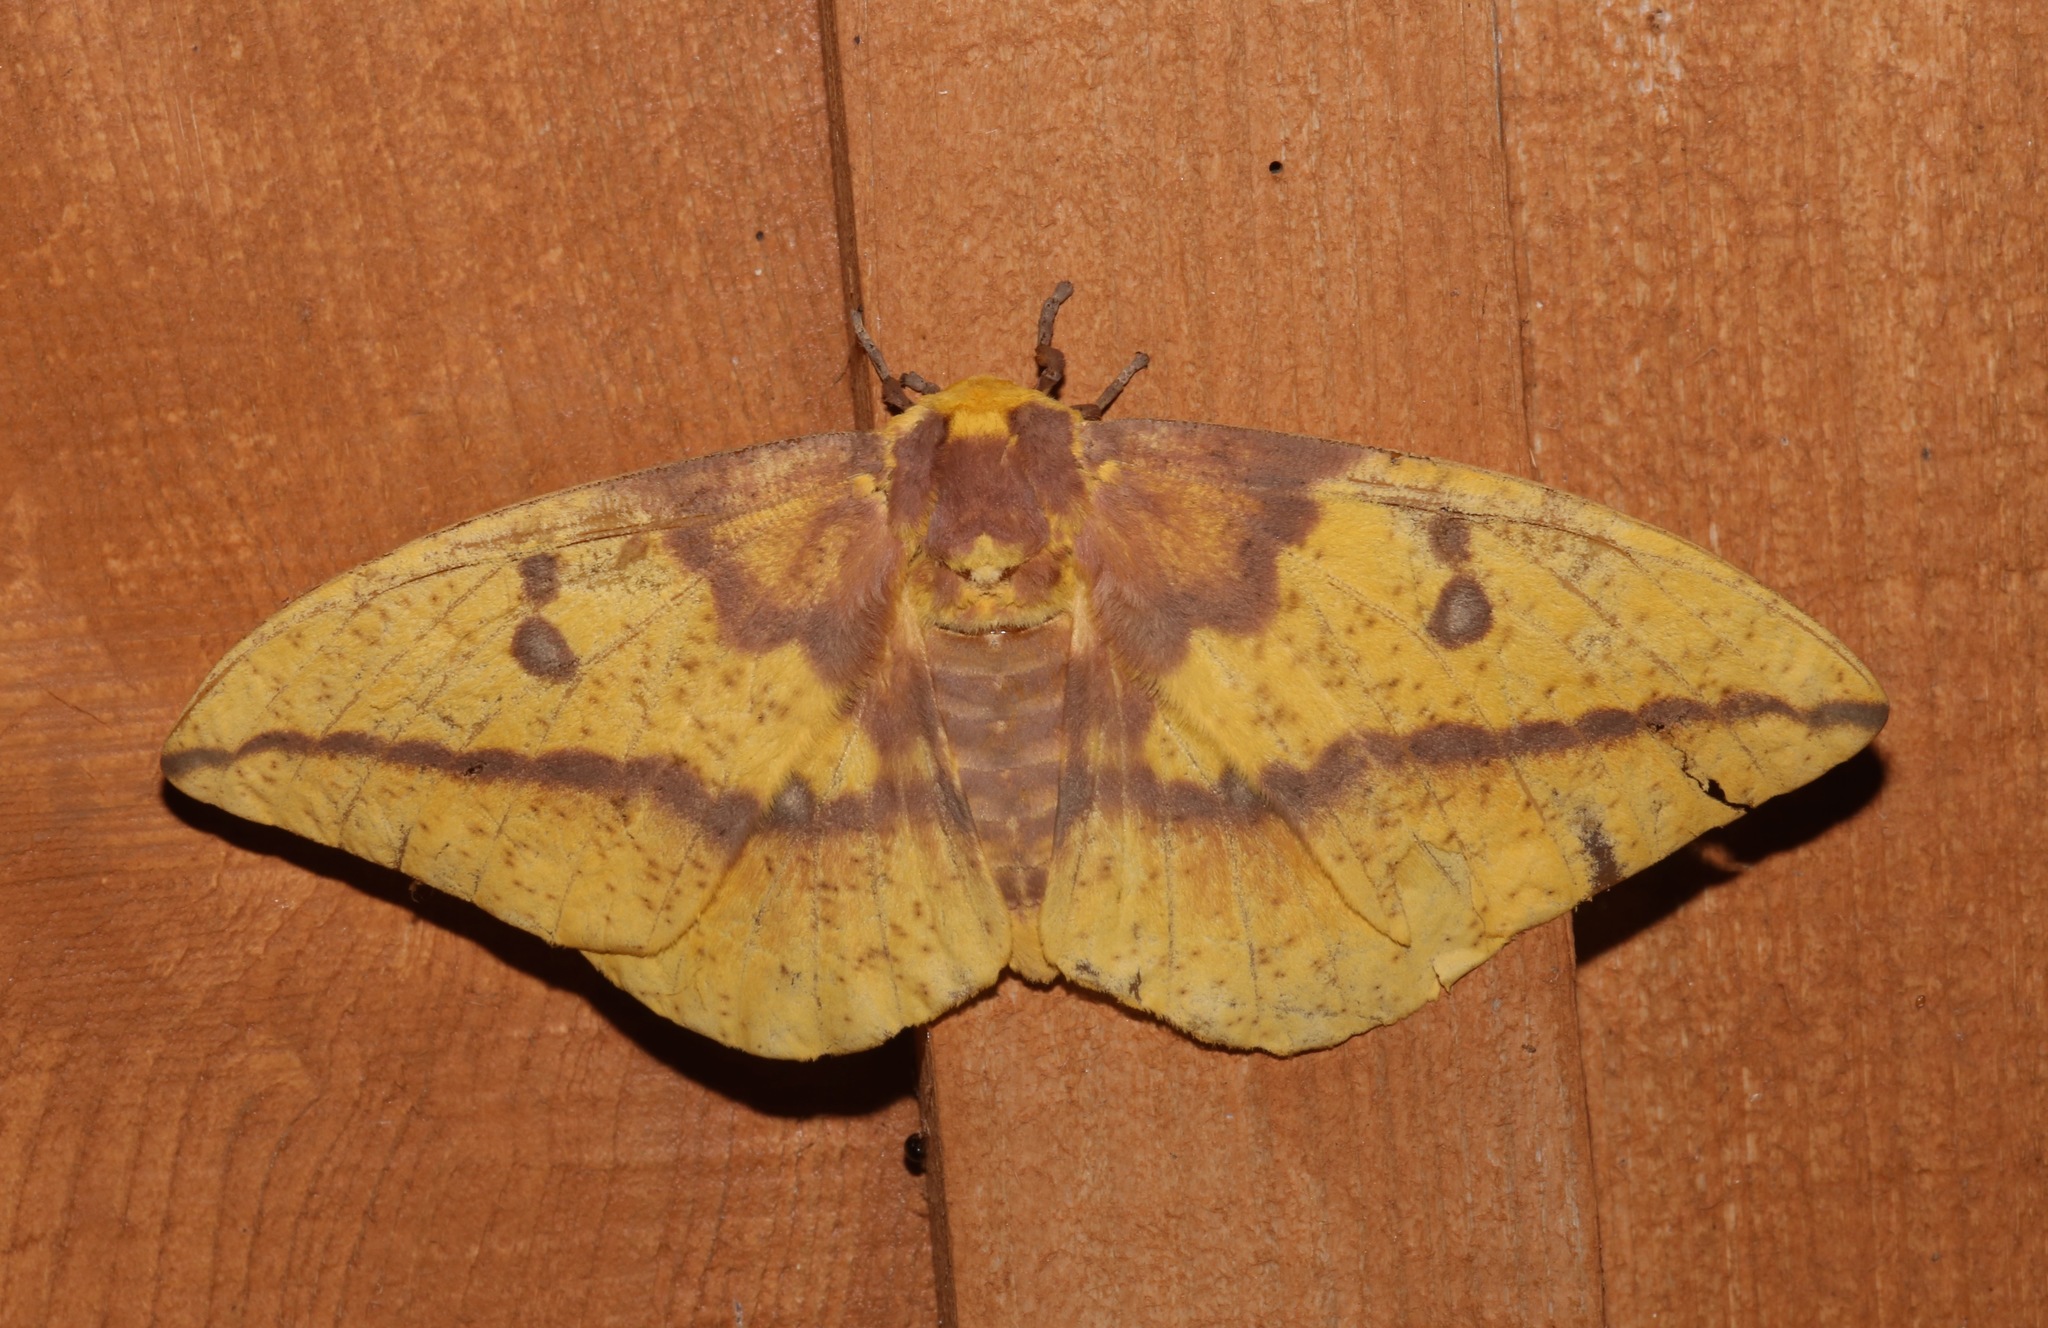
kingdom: Animalia
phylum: Arthropoda
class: Insecta
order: Lepidoptera
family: Saturniidae
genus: Eacles
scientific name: Eacles imperialis
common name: Imperial moth
